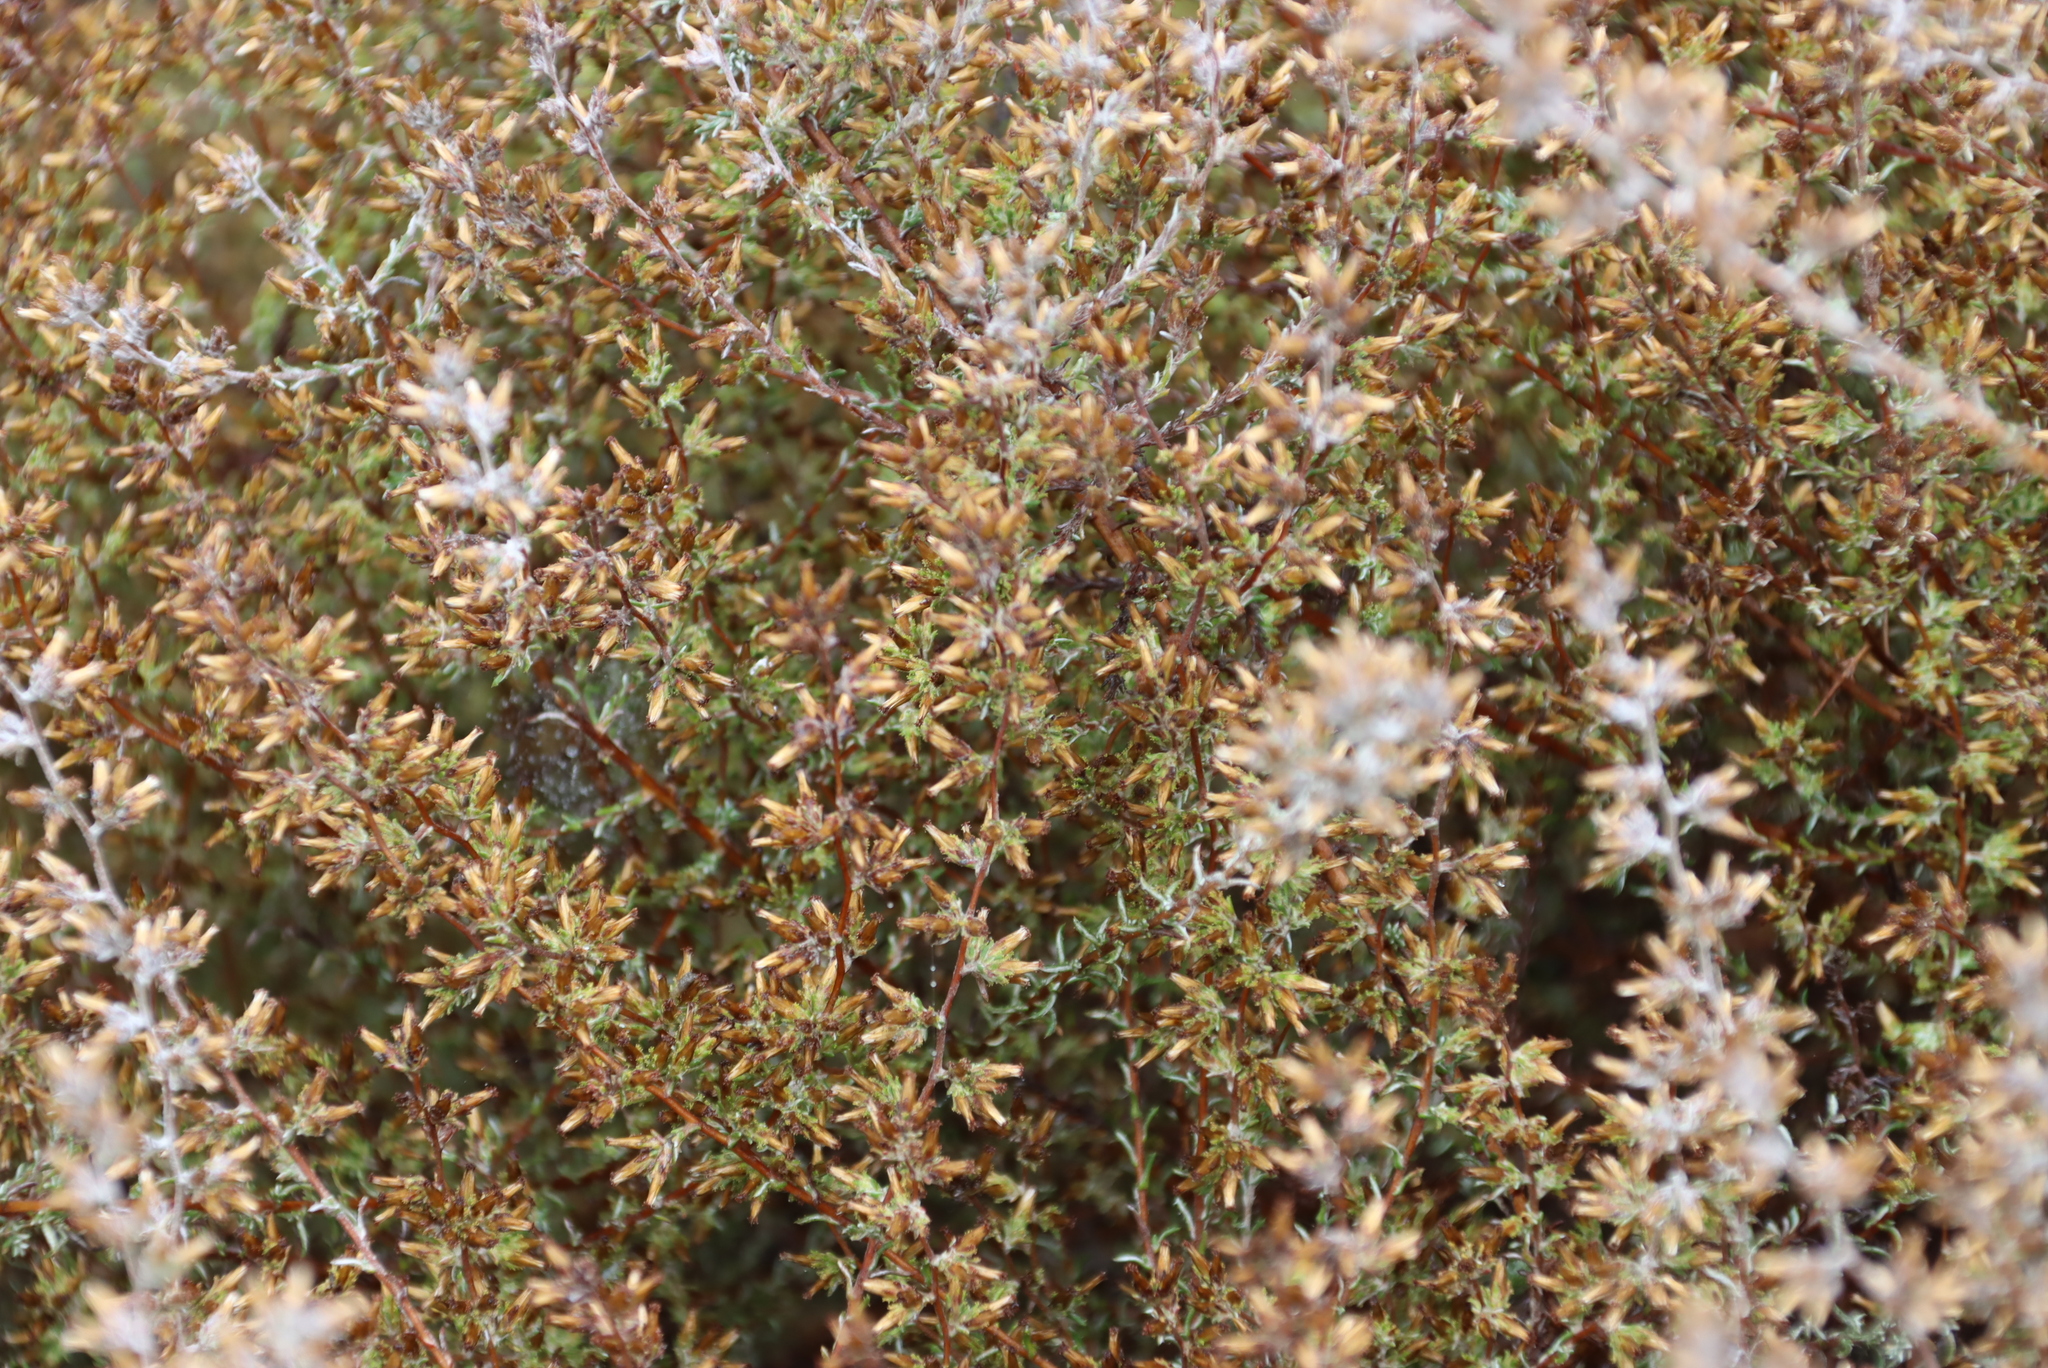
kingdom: Plantae
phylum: Tracheophyta
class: Magnoliopsida
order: Asterales
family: Asteraceae
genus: Myrovernix
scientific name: Myrovernix gnaphaloides
